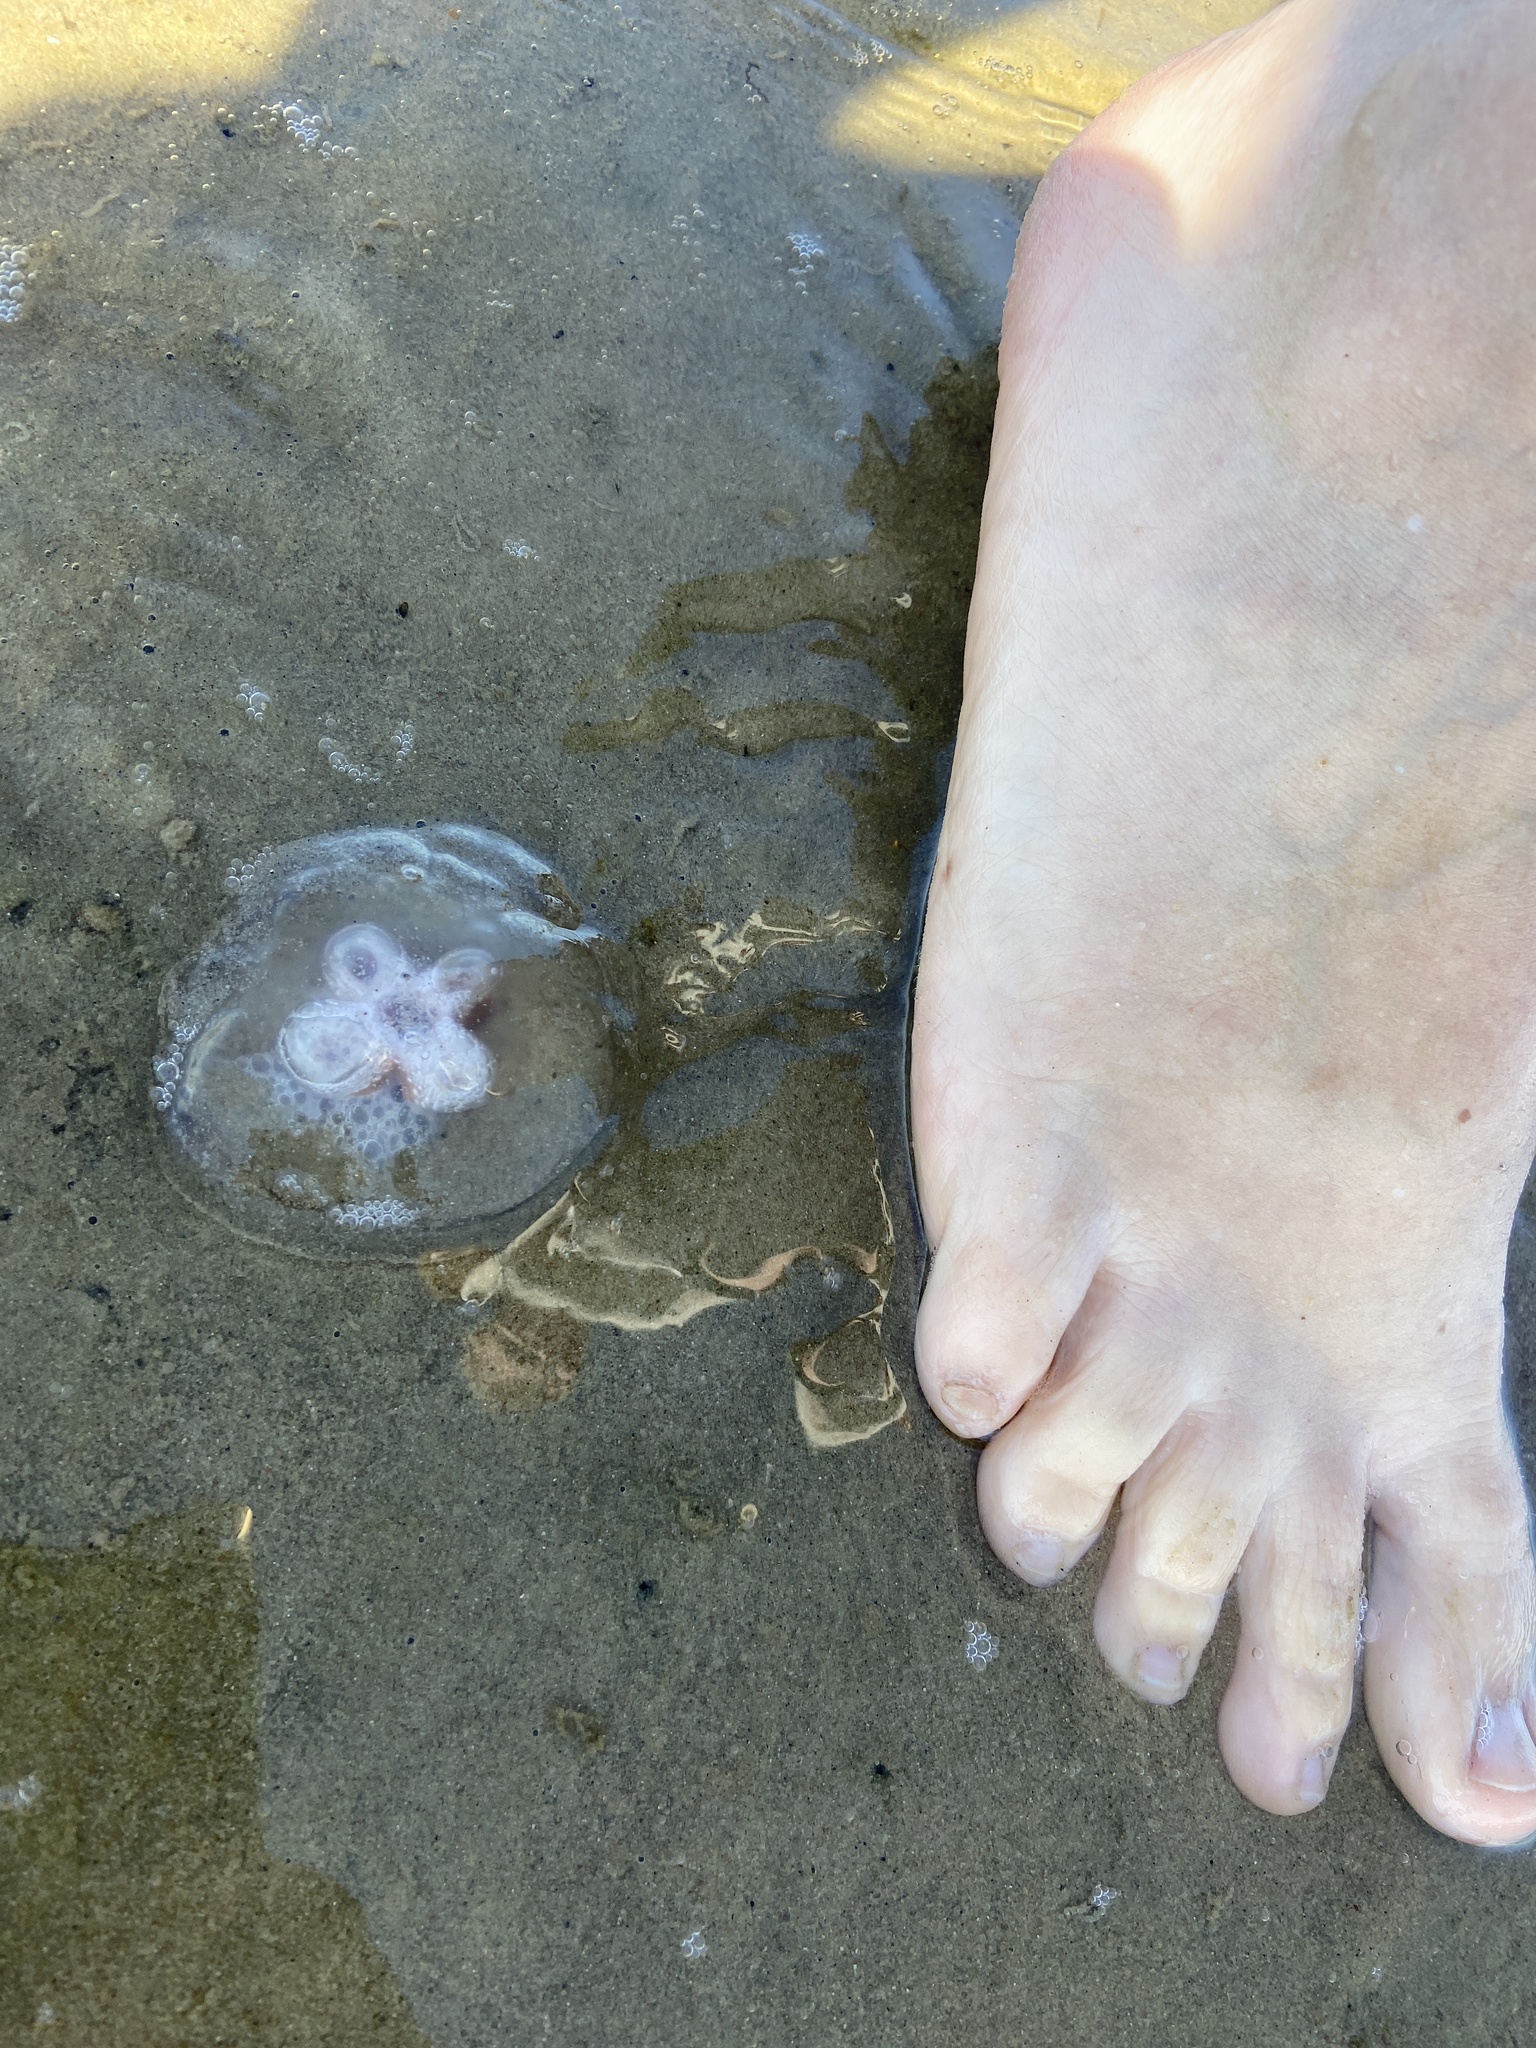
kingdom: Animalia
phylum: Cnidaria
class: Scyphozoa
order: Semaeostomeae
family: Ulmaridae
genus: Aurelia
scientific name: Aurelia aurita
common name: Moon jellyfish
